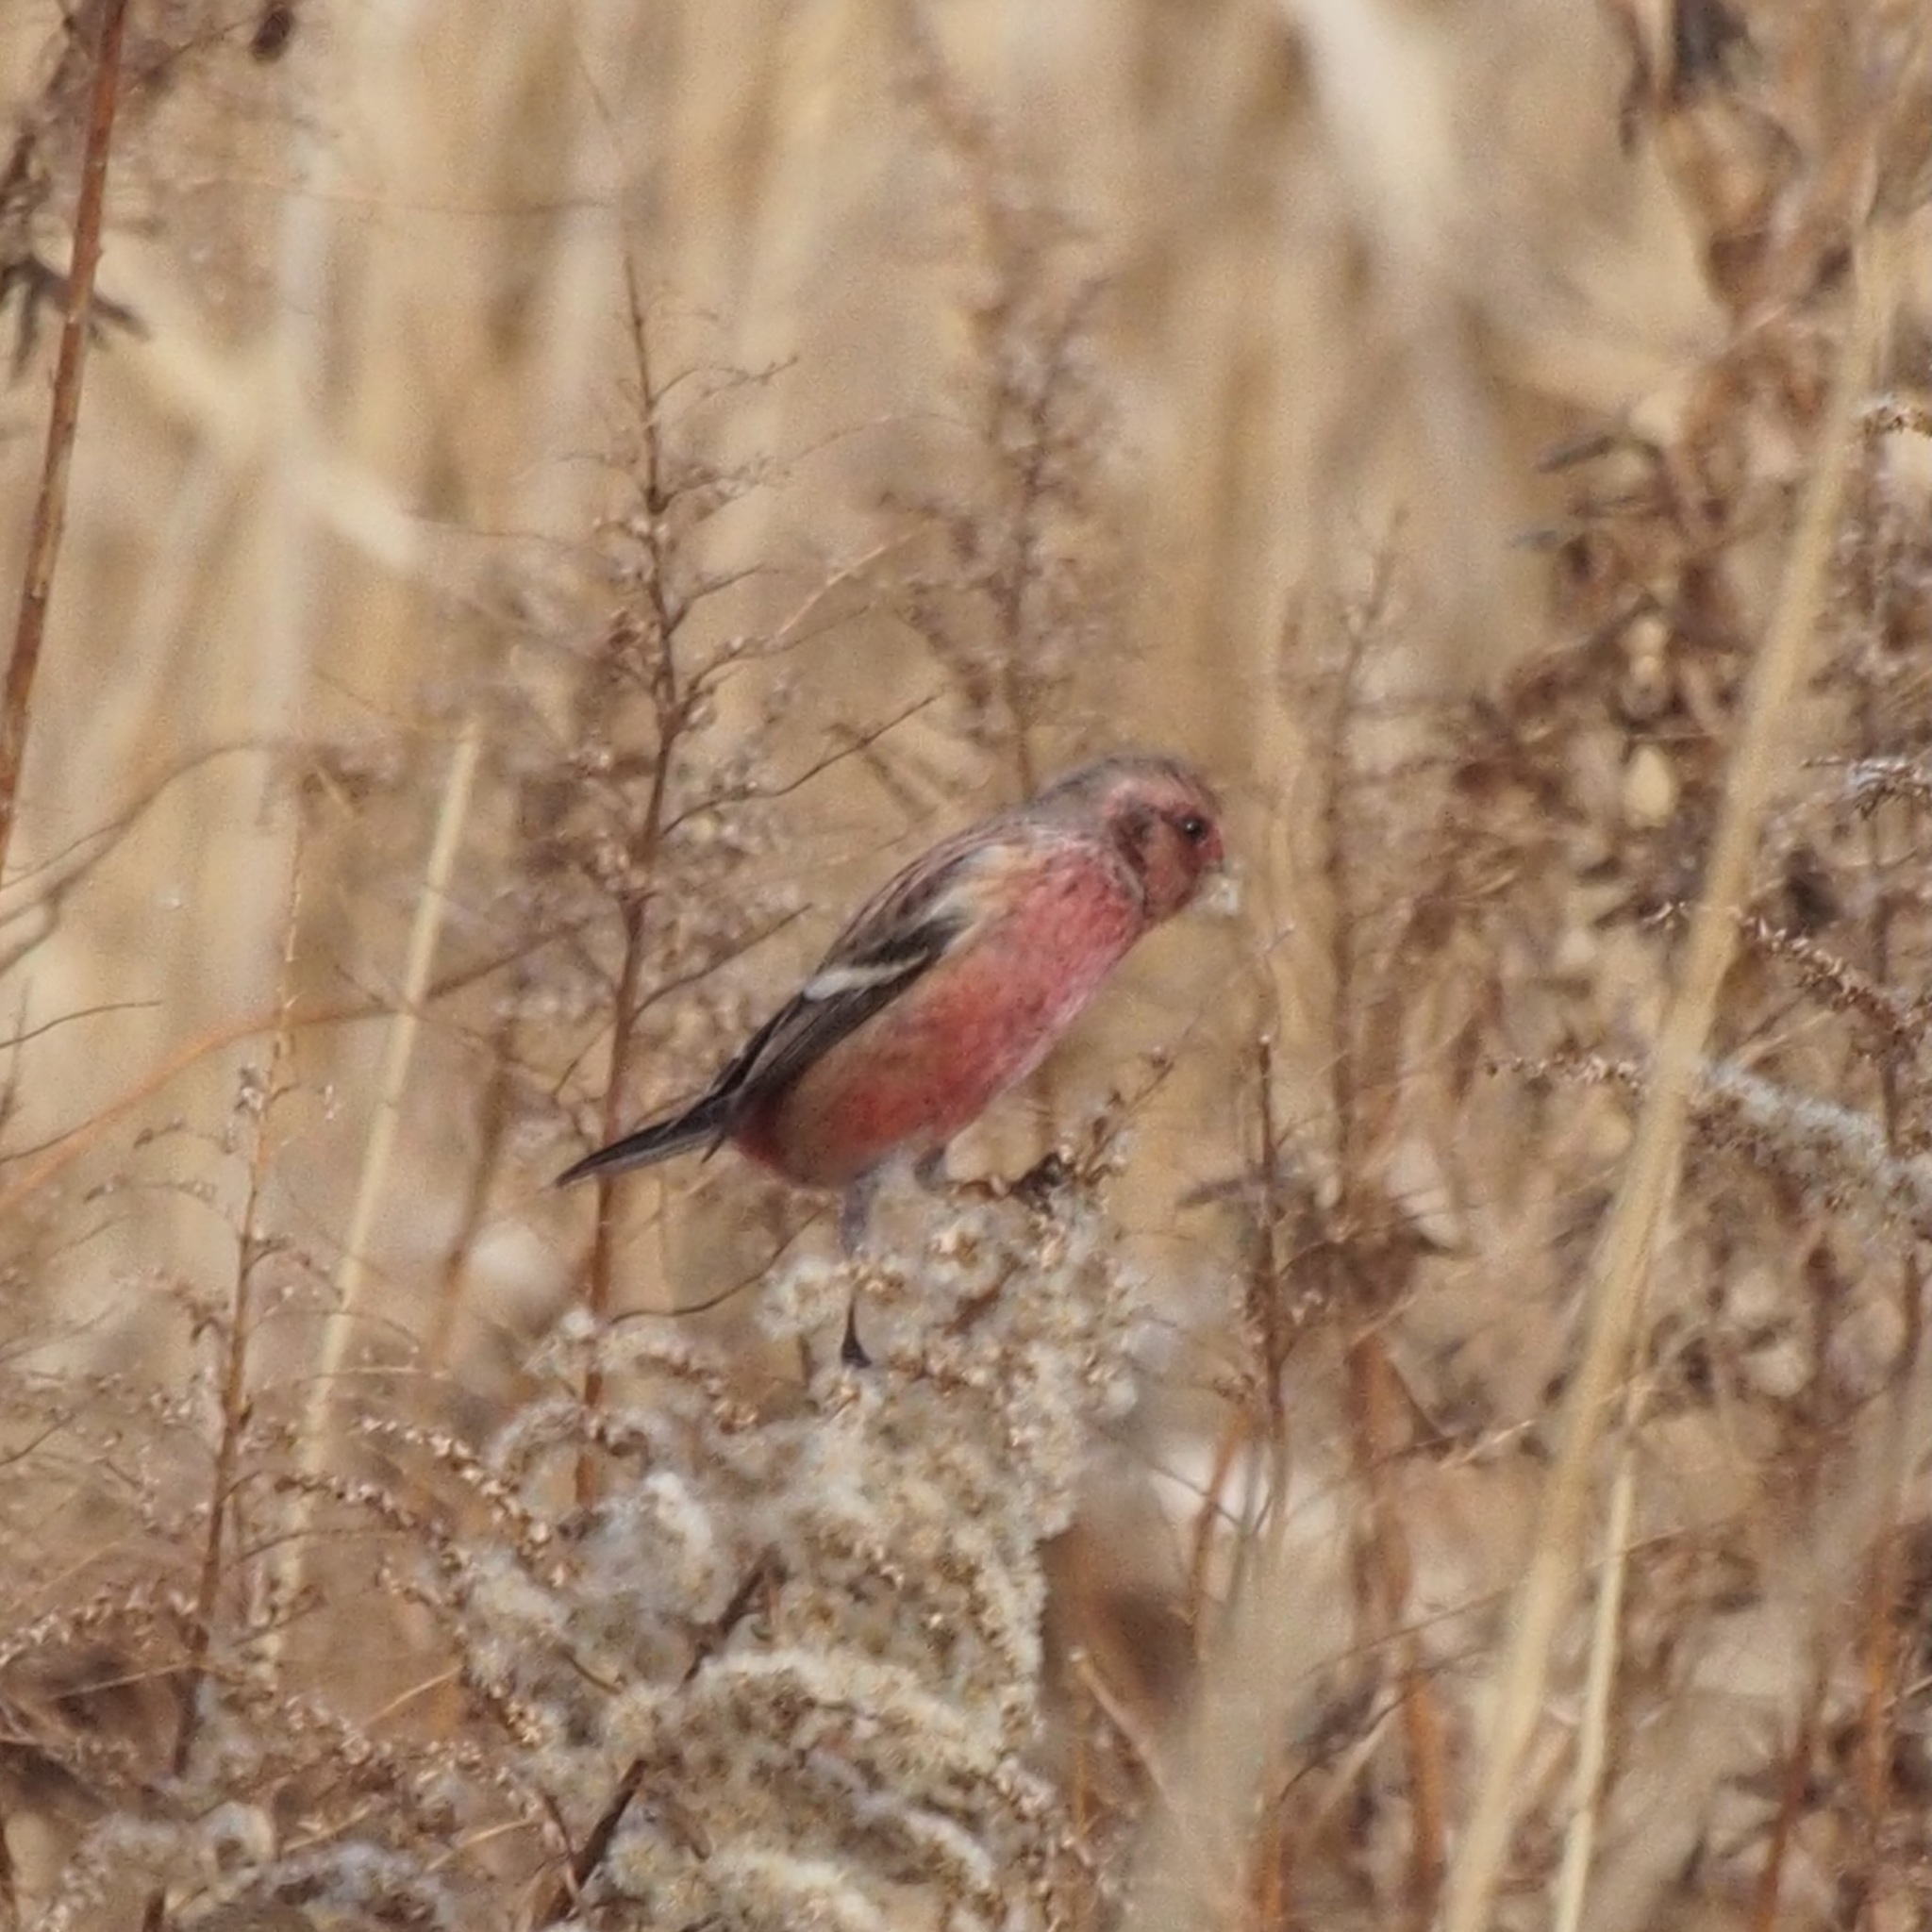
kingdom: Animalia
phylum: Chordata
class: Aves
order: Passeriformes
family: Fringillidae
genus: Carpodacus
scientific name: Carpodacus sibiricus
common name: Long-tailed rosefinch
